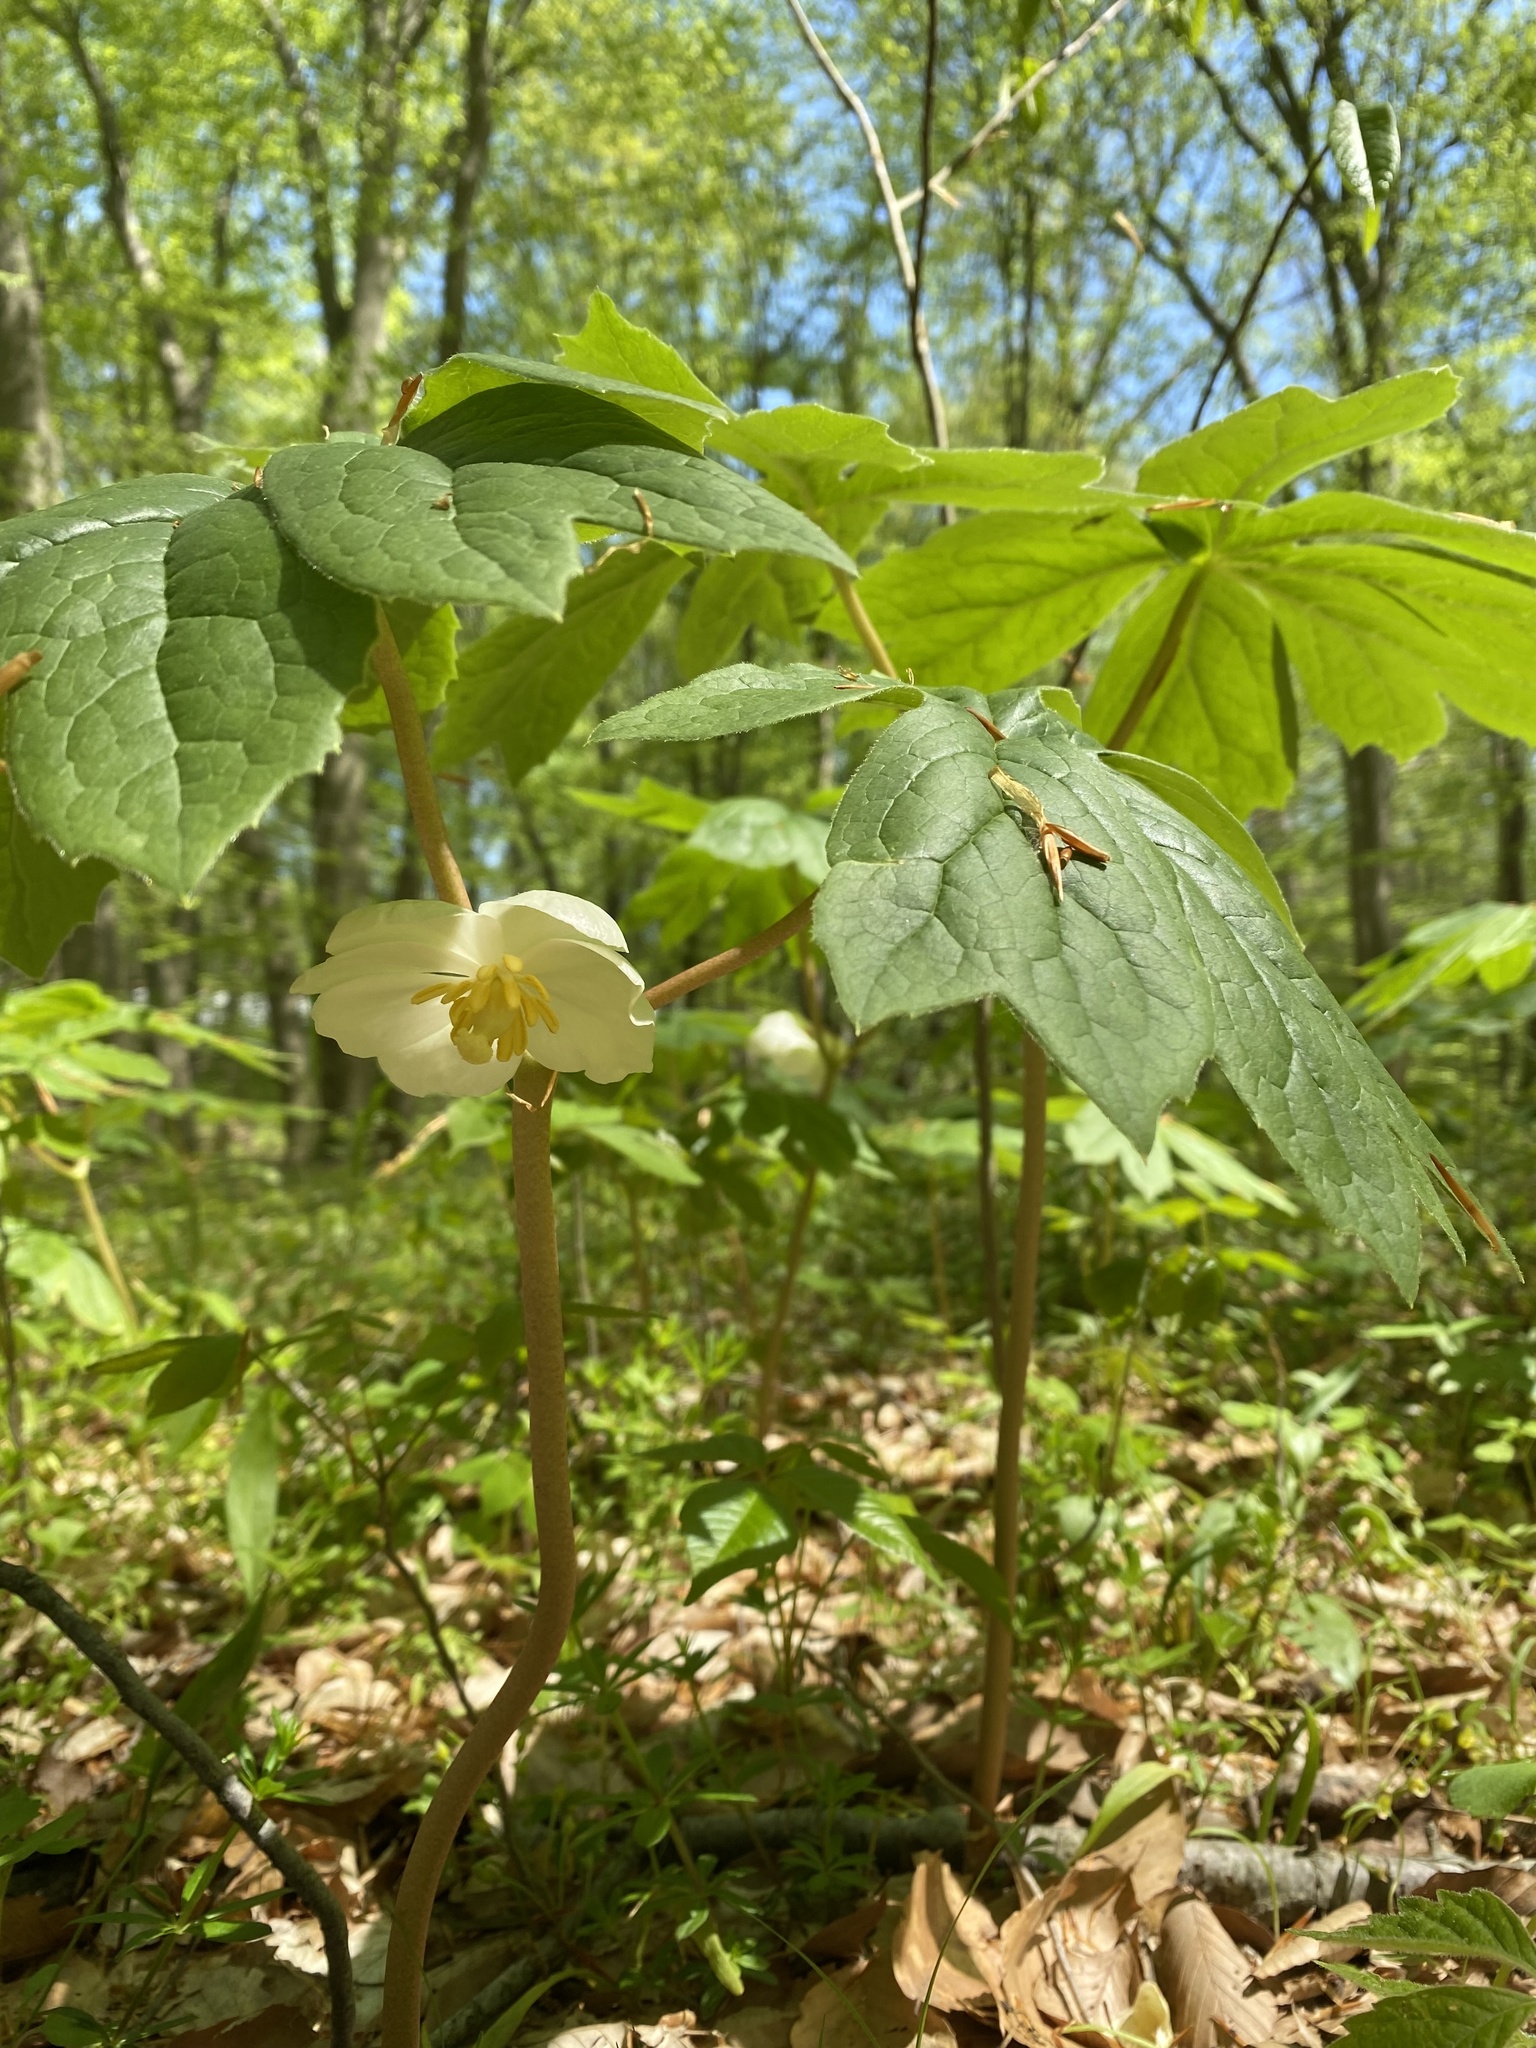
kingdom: Plantae
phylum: Tracheophyta
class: Magnoliopsida
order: Ranunculales
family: Berberidaceae
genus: Podophyllum
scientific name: Podophyllum peltatum
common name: Wild mandrake
